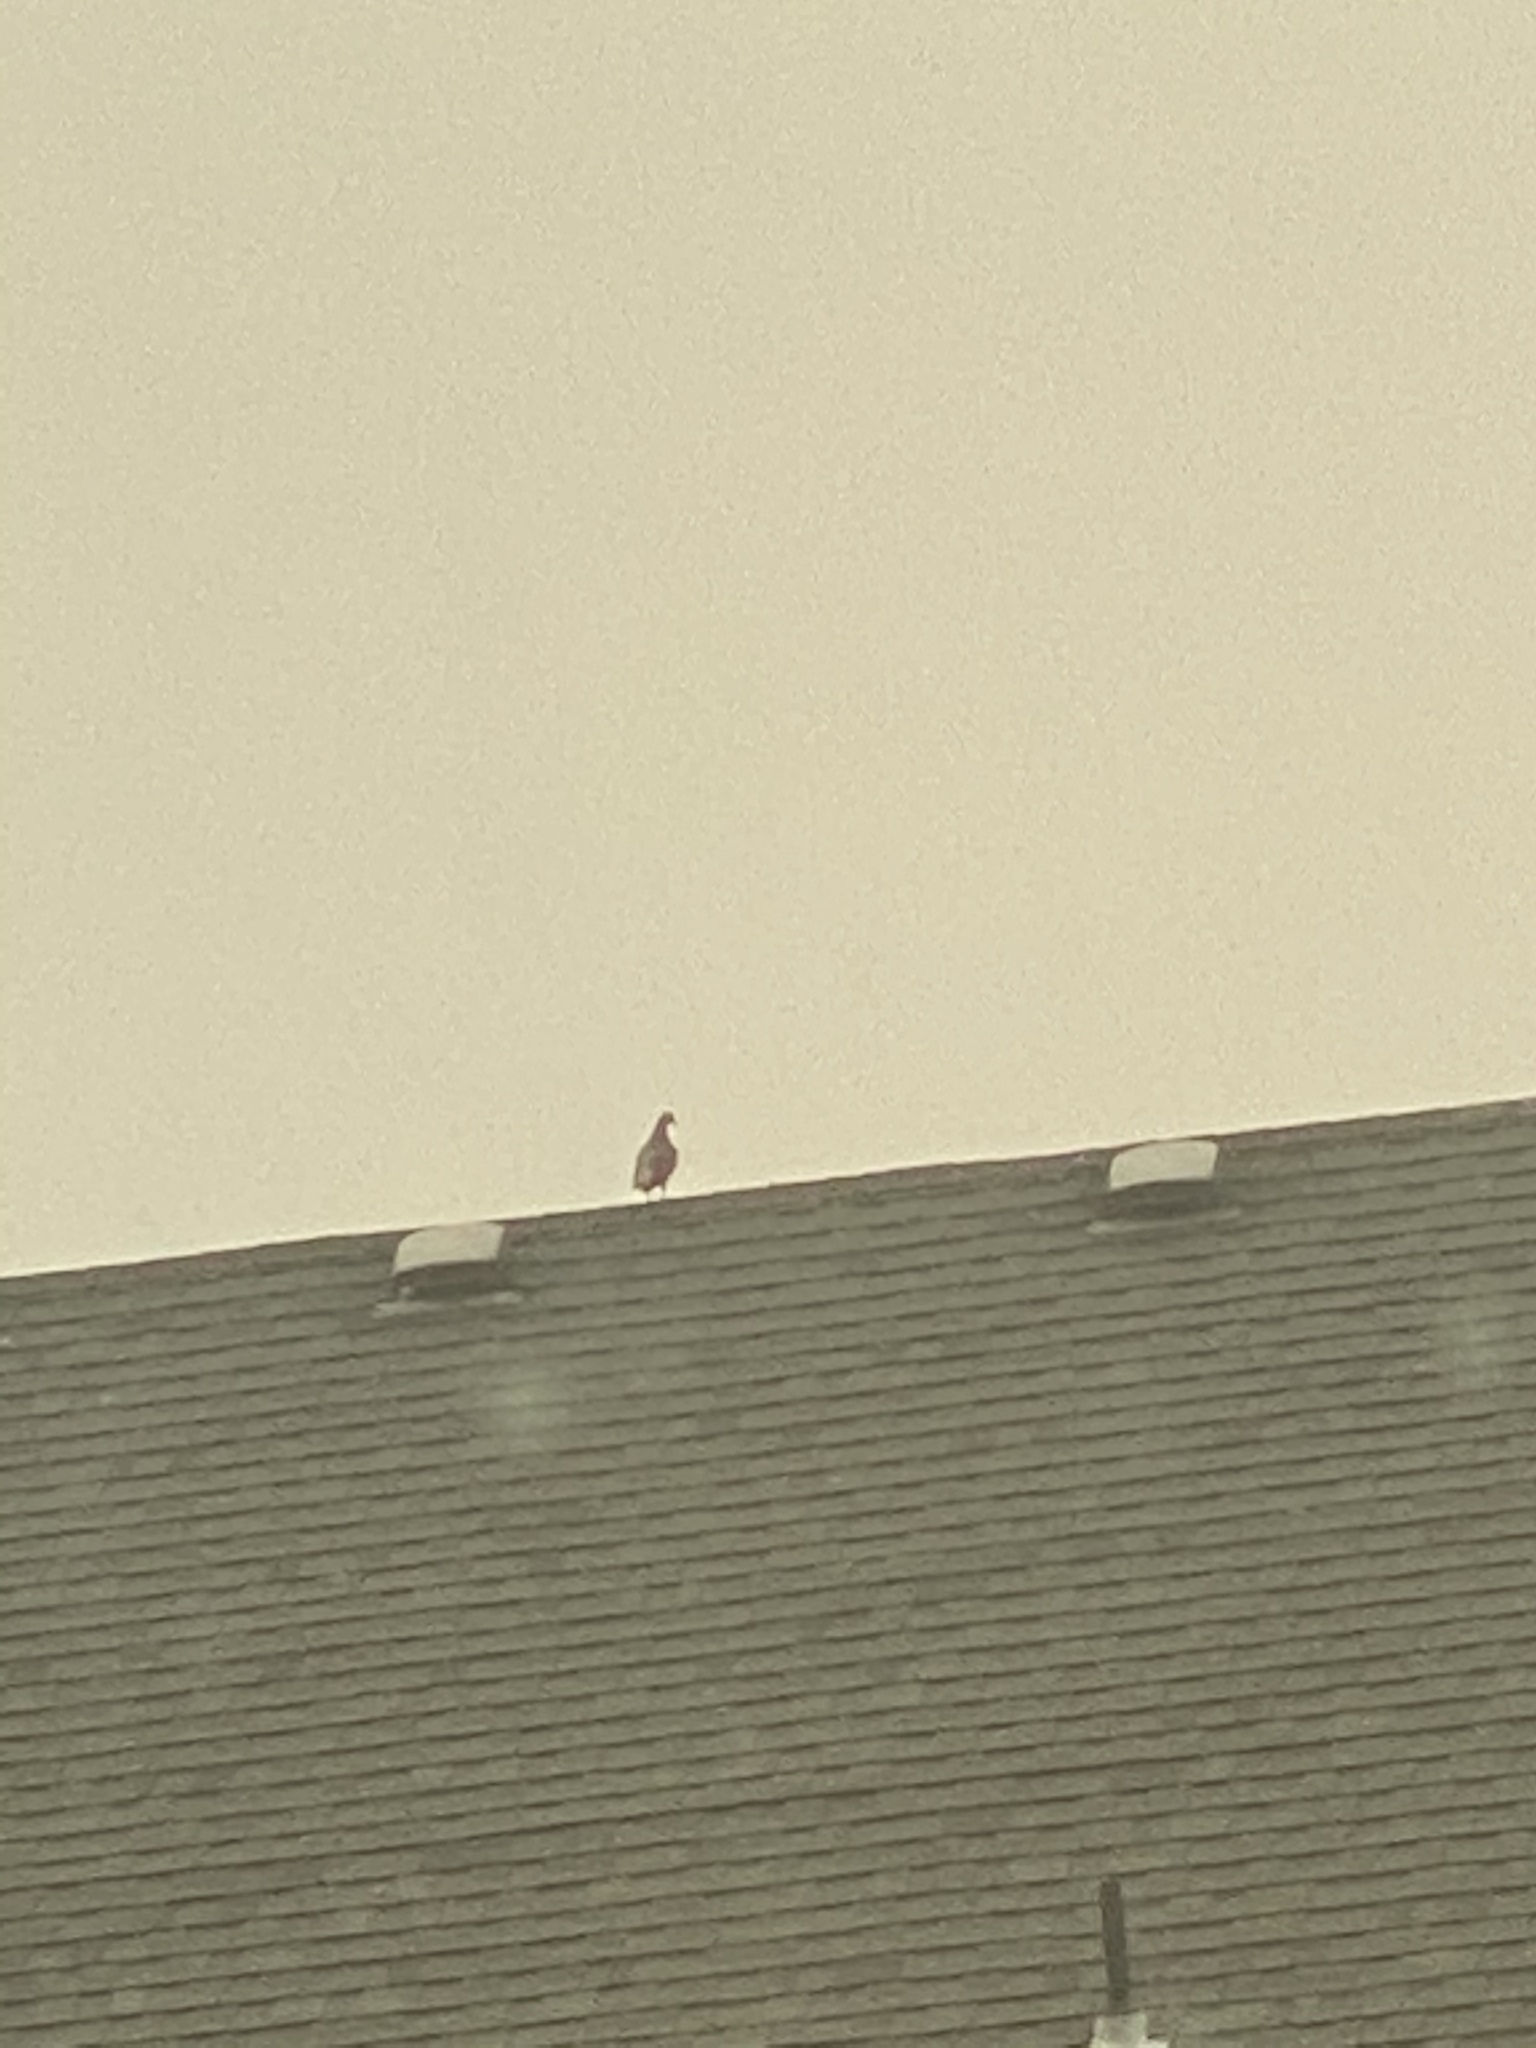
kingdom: Animalia
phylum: Chordata
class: Aves
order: Columbiformes
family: Columbidae
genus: Columba
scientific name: Columba livia
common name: Rock pigeon
